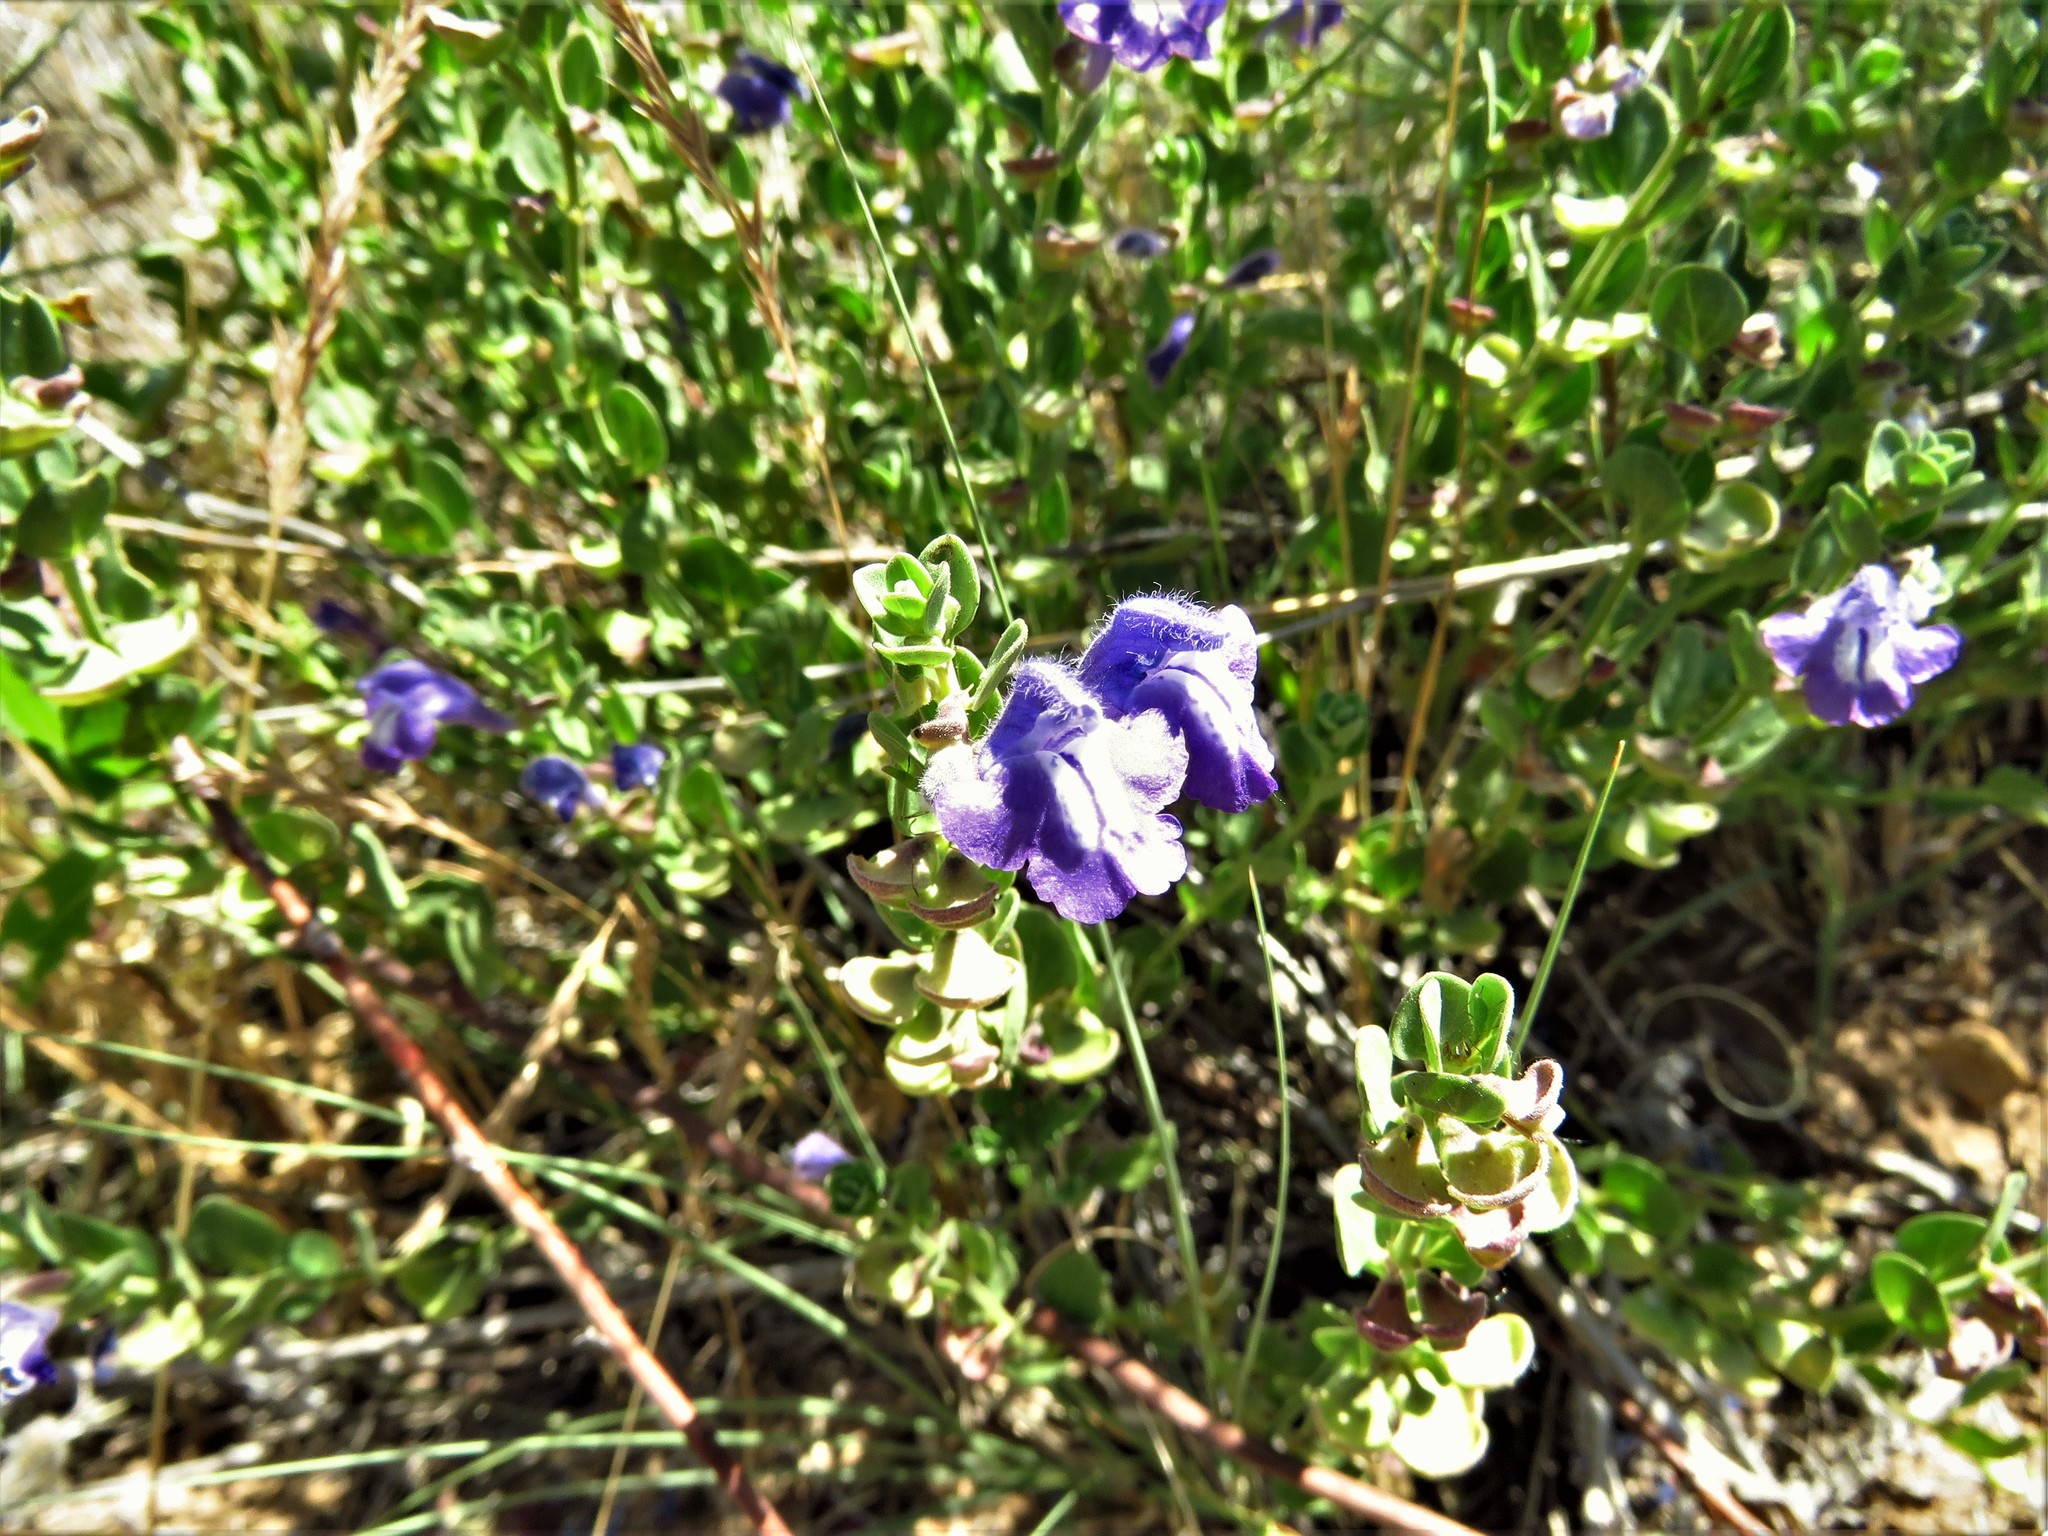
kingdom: Plantae
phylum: Tracheophyta
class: Magnoliopsida
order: Lamiales
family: Lamiaceae
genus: Scutellaria
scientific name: Scutellaria resinosa
